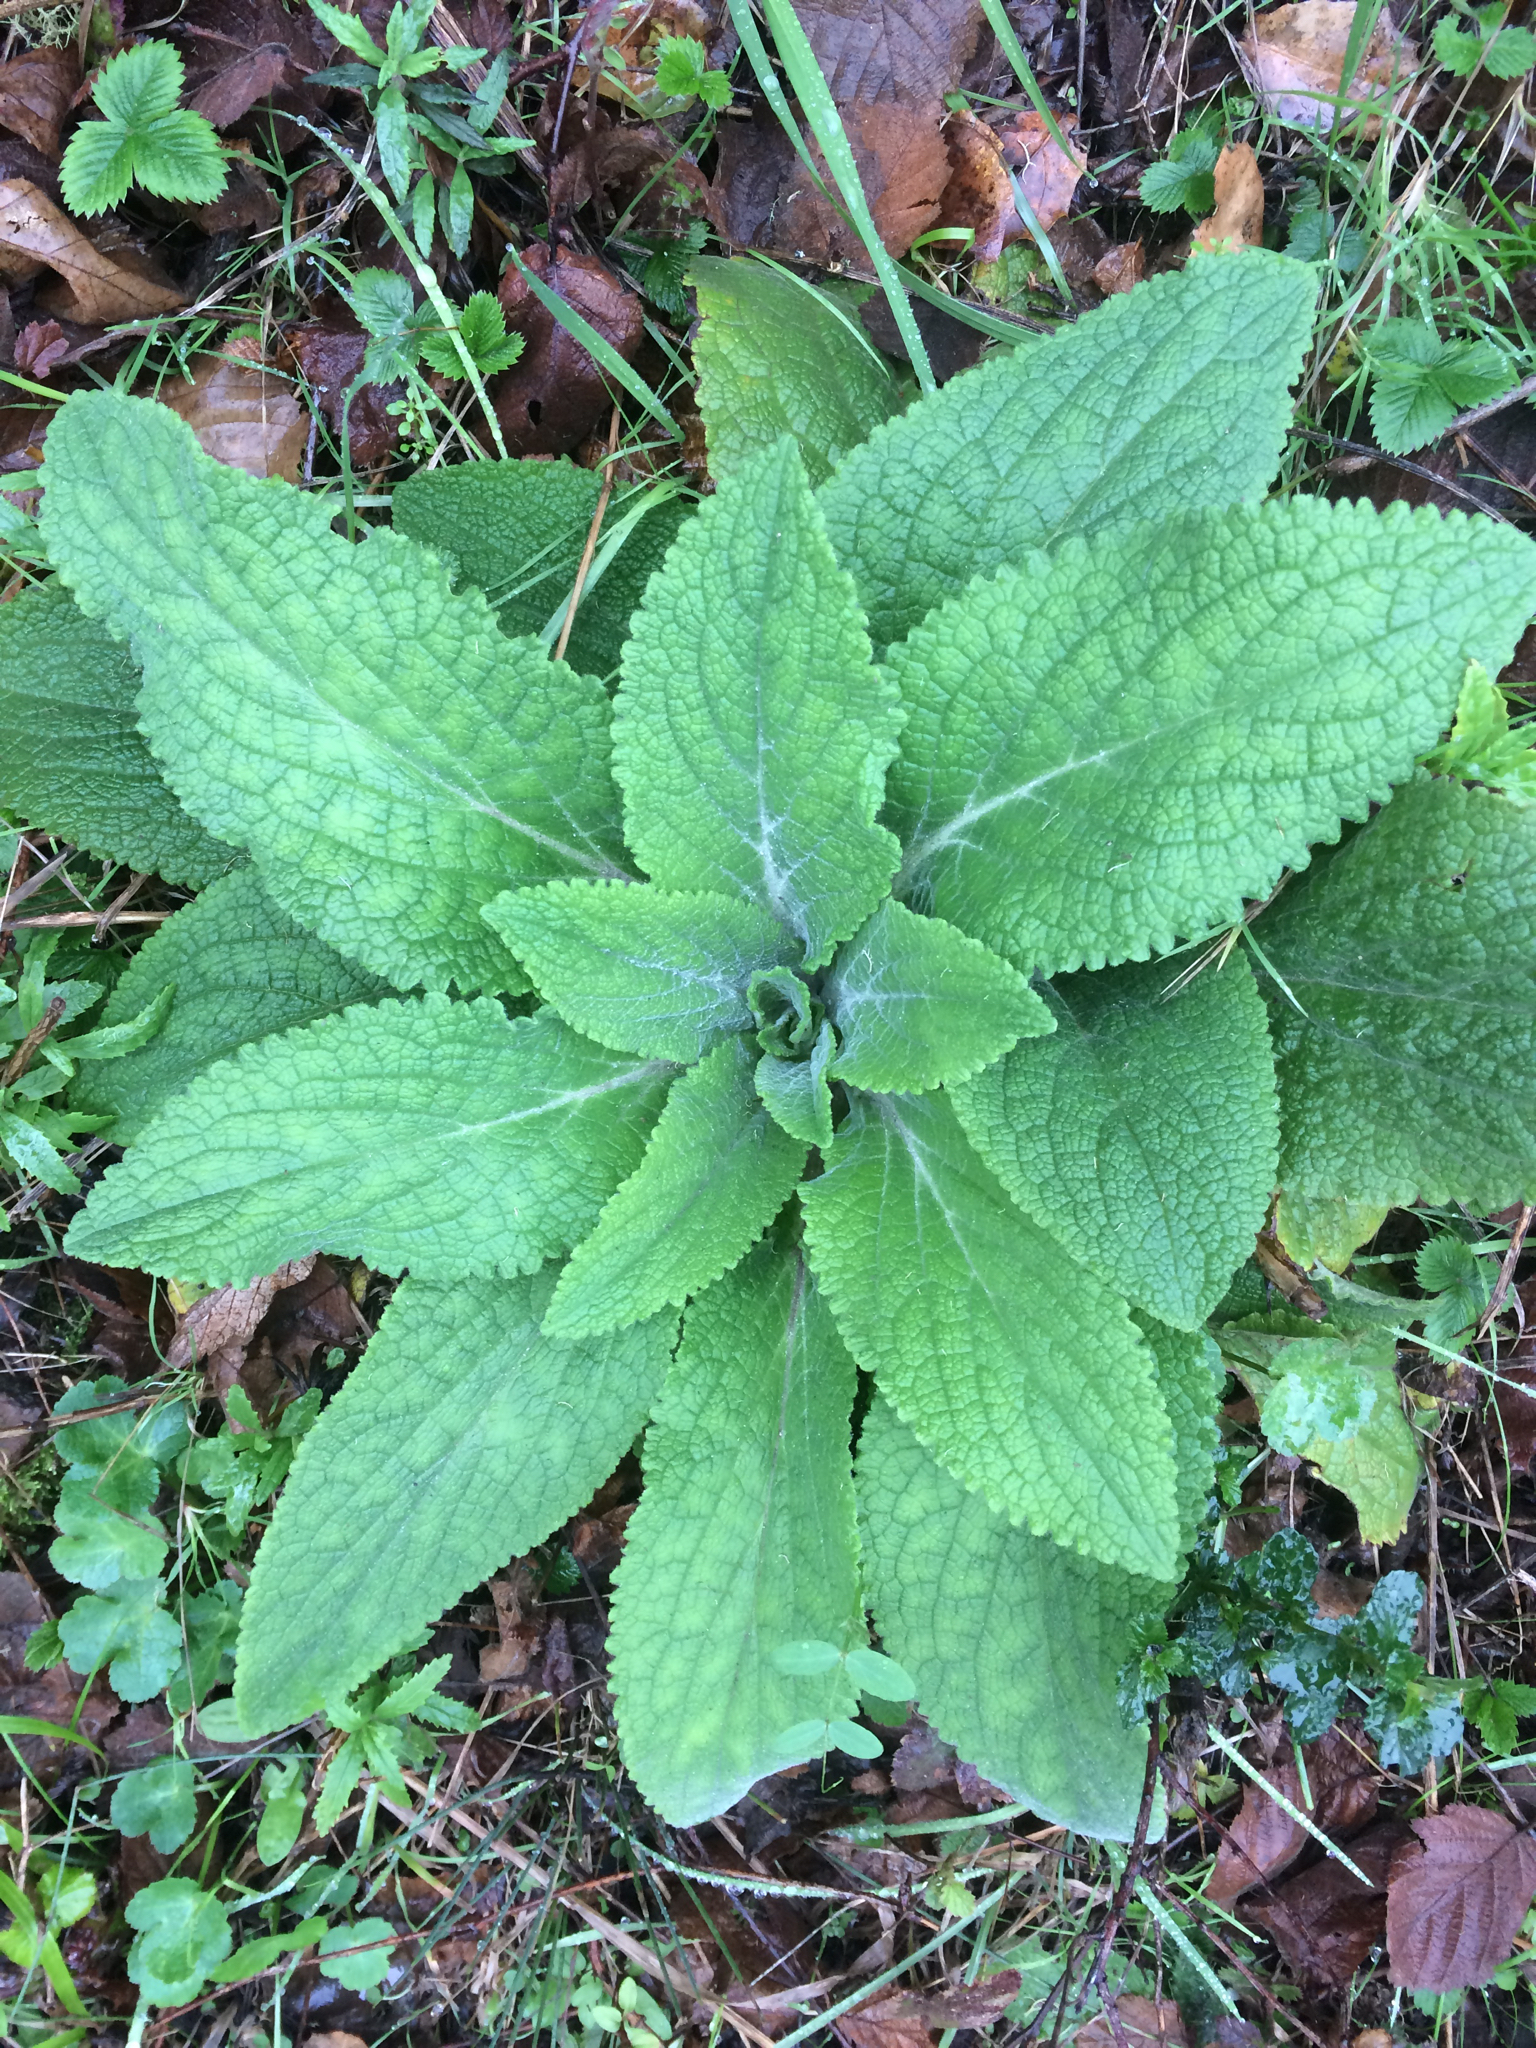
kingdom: Plantae
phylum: Tracheophyta
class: Magnoliopsida
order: Lamiales
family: Plantaginaceae
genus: Digitalis
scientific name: Digitalis purpurea
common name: Foxglove
